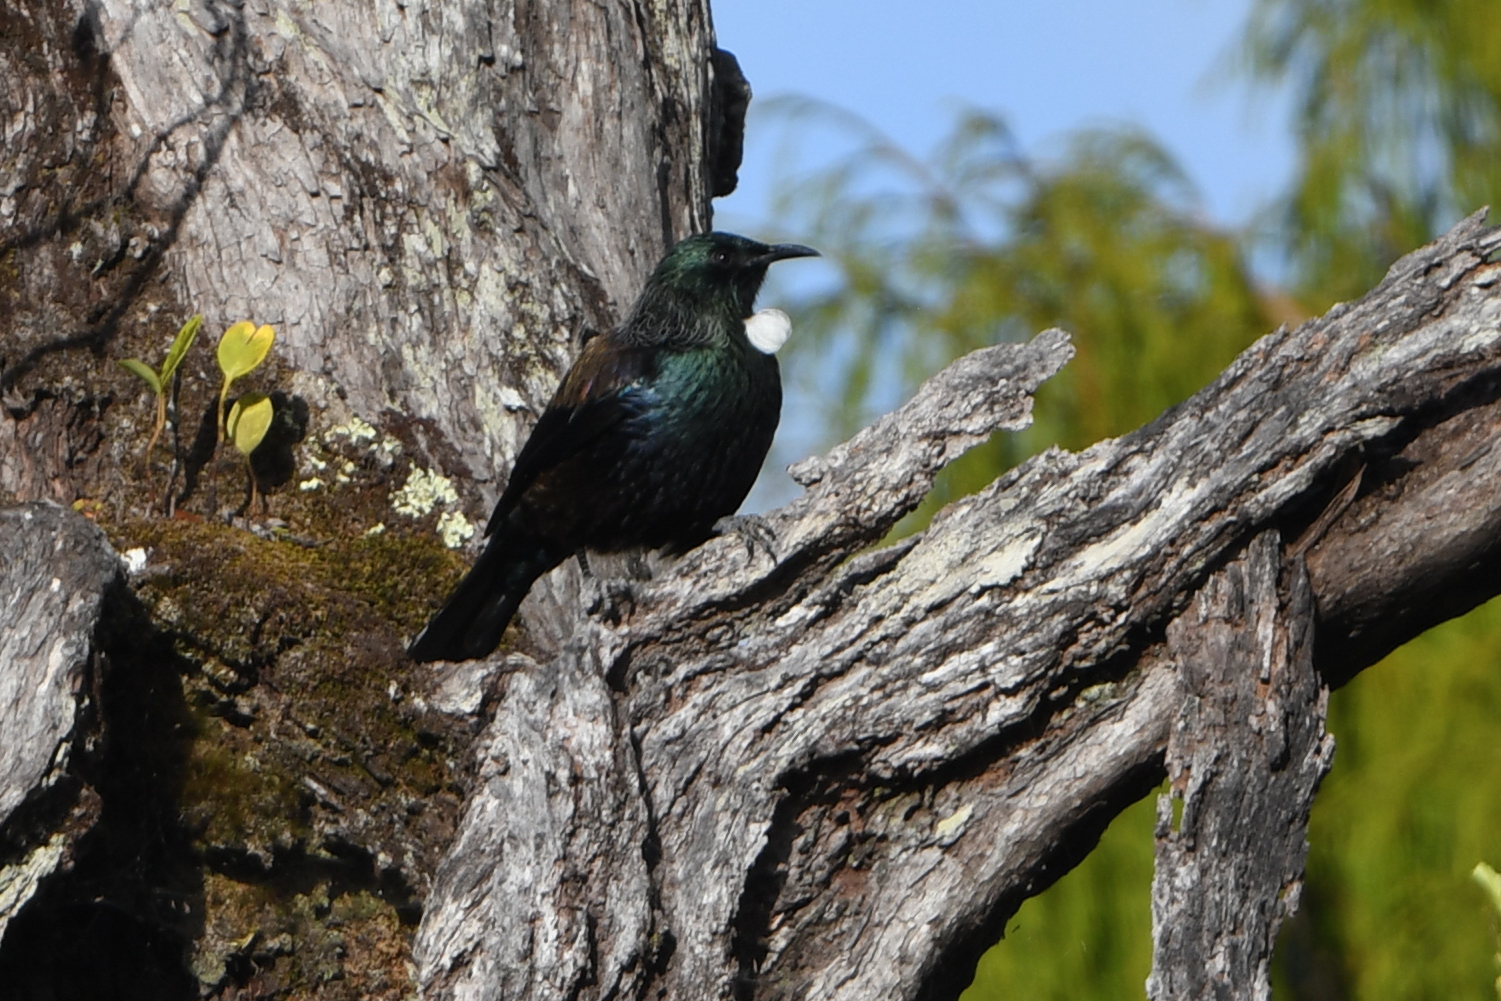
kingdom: Animalia
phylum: Chordata
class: Aves
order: Passeriformes
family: Meliphagidae
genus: Prosthemadera
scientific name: Prosthemadera novaeseelandiae
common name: Tui
